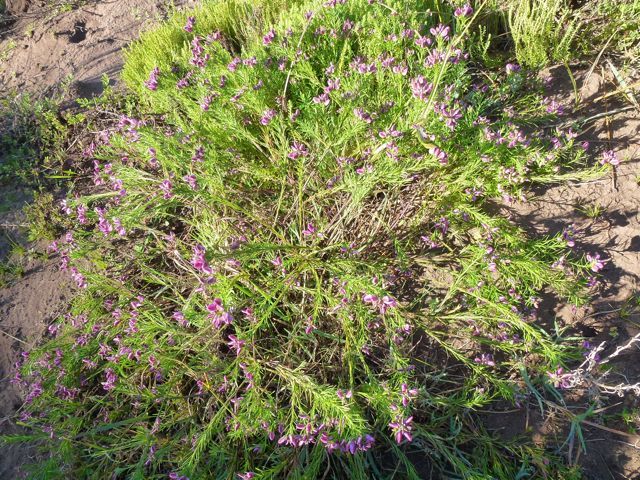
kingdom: Plantae
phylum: Tracheophyta
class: Magnoliopsida
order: Fabales
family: Polygalaceae
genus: Polygala
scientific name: Polygala ericifolia
